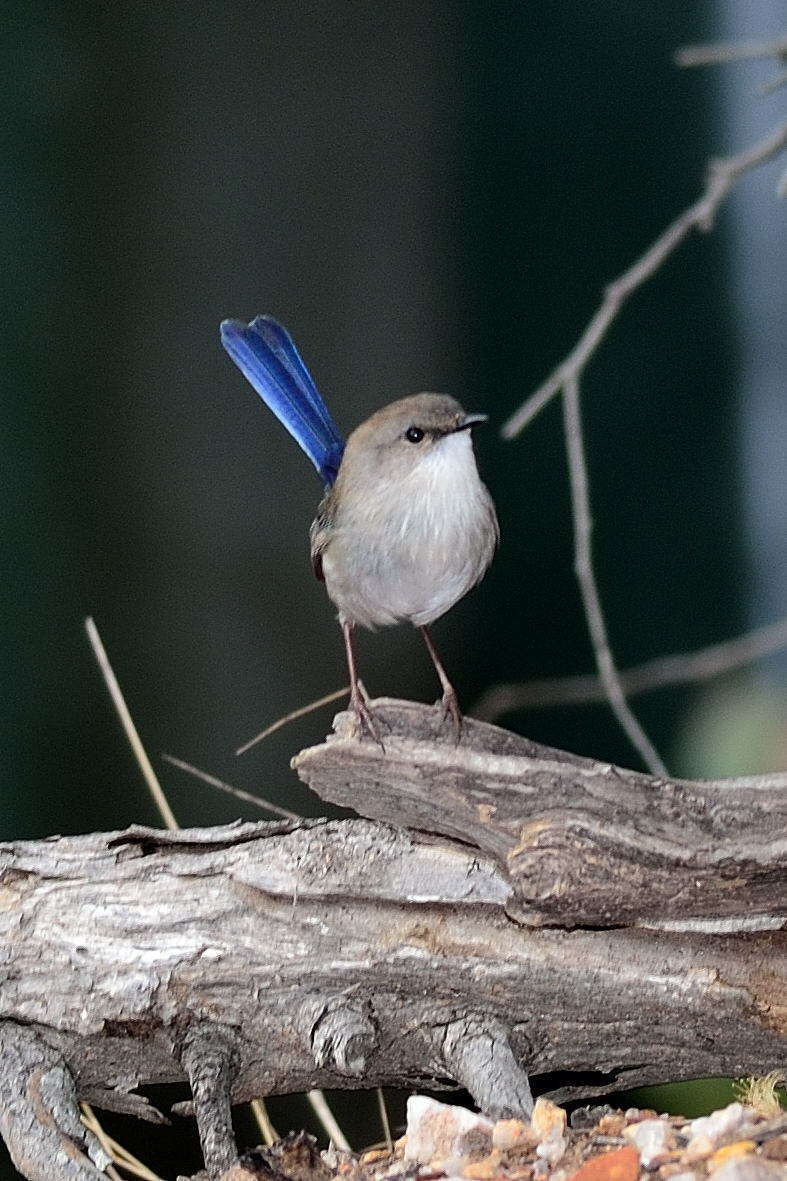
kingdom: Animalia
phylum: Chordata
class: Aves
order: Passeriformes
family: Maluridae
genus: Malurus
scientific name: Malurus cyaneus
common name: Superb fairywren
